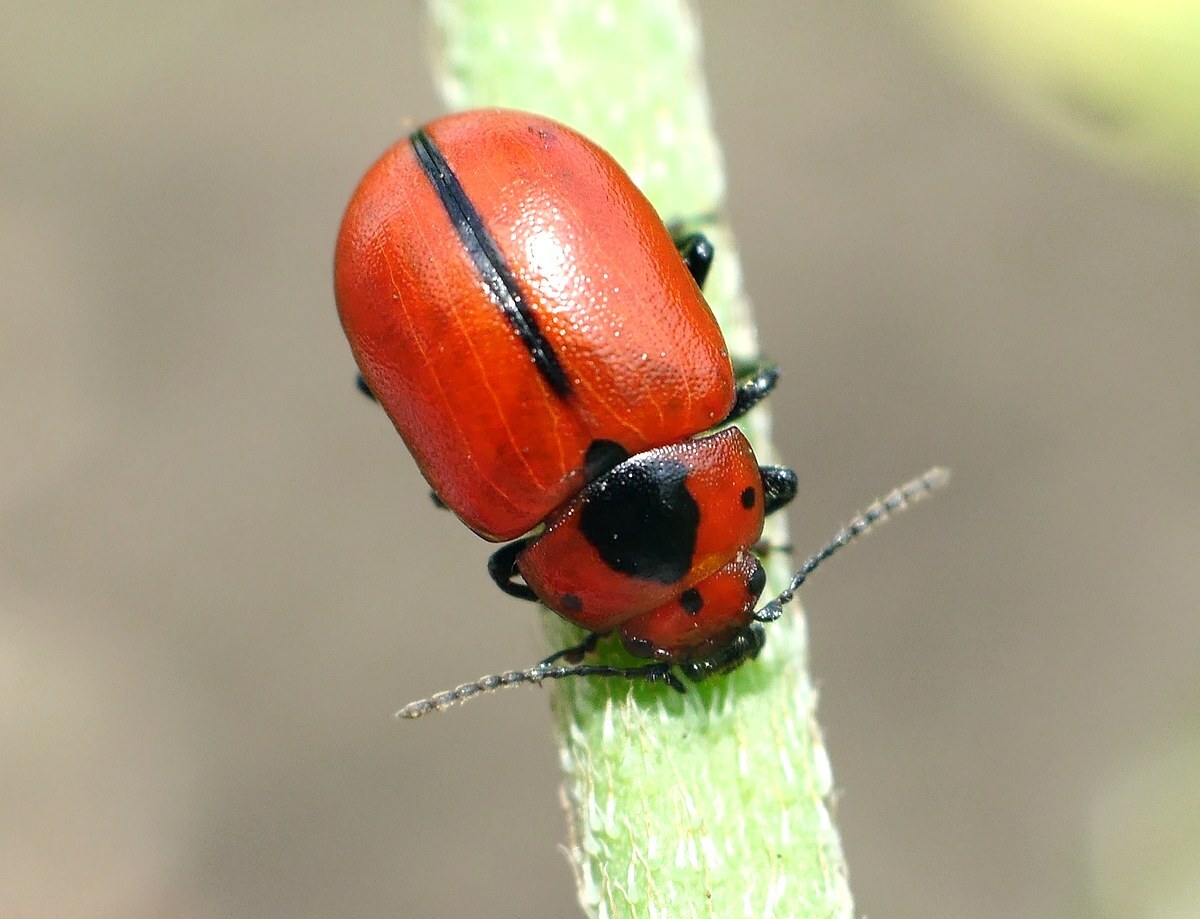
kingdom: Animalia
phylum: Arthropoda
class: Insecta
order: Coleoptera
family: Chrysomelidae
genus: Entomoscelis
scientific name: Entomoscelis suturalis
